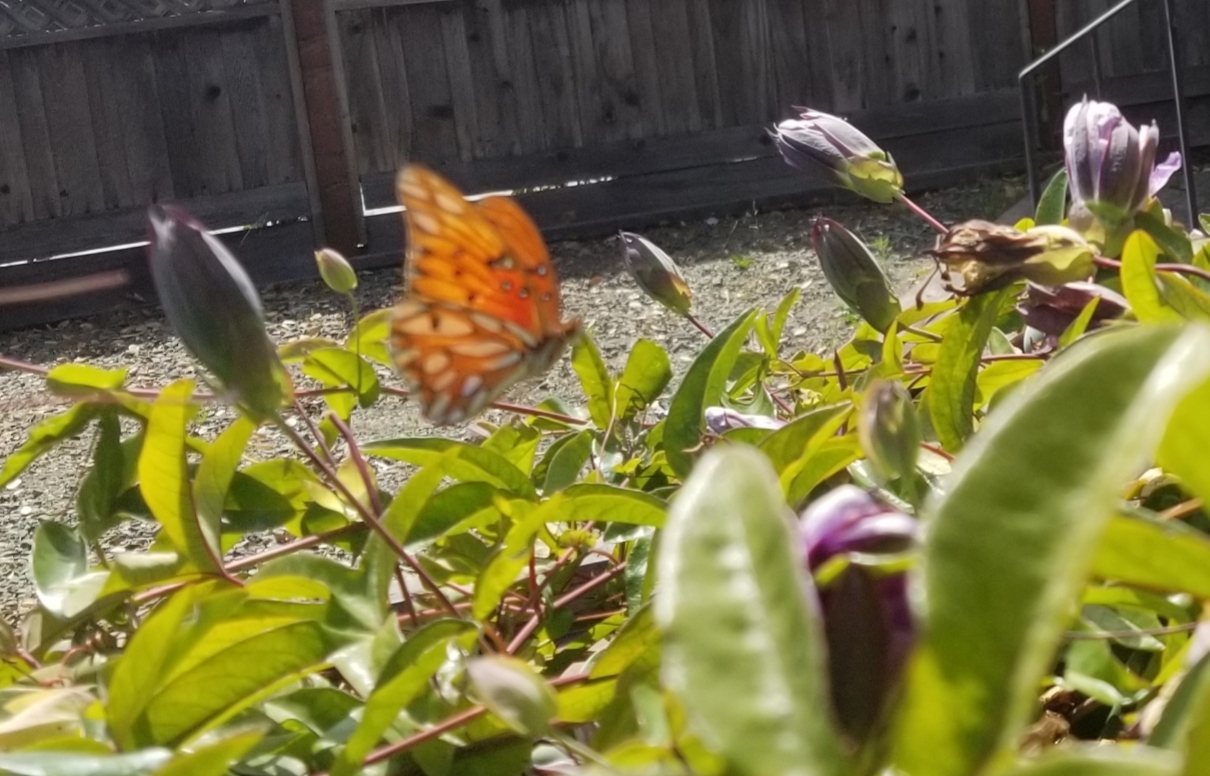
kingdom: Animalia
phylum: Arthropoda
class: Insecta
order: Lepidoptera
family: Nymphalidae
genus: Dione
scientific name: Dione vanillae
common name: Gulf fritillary
